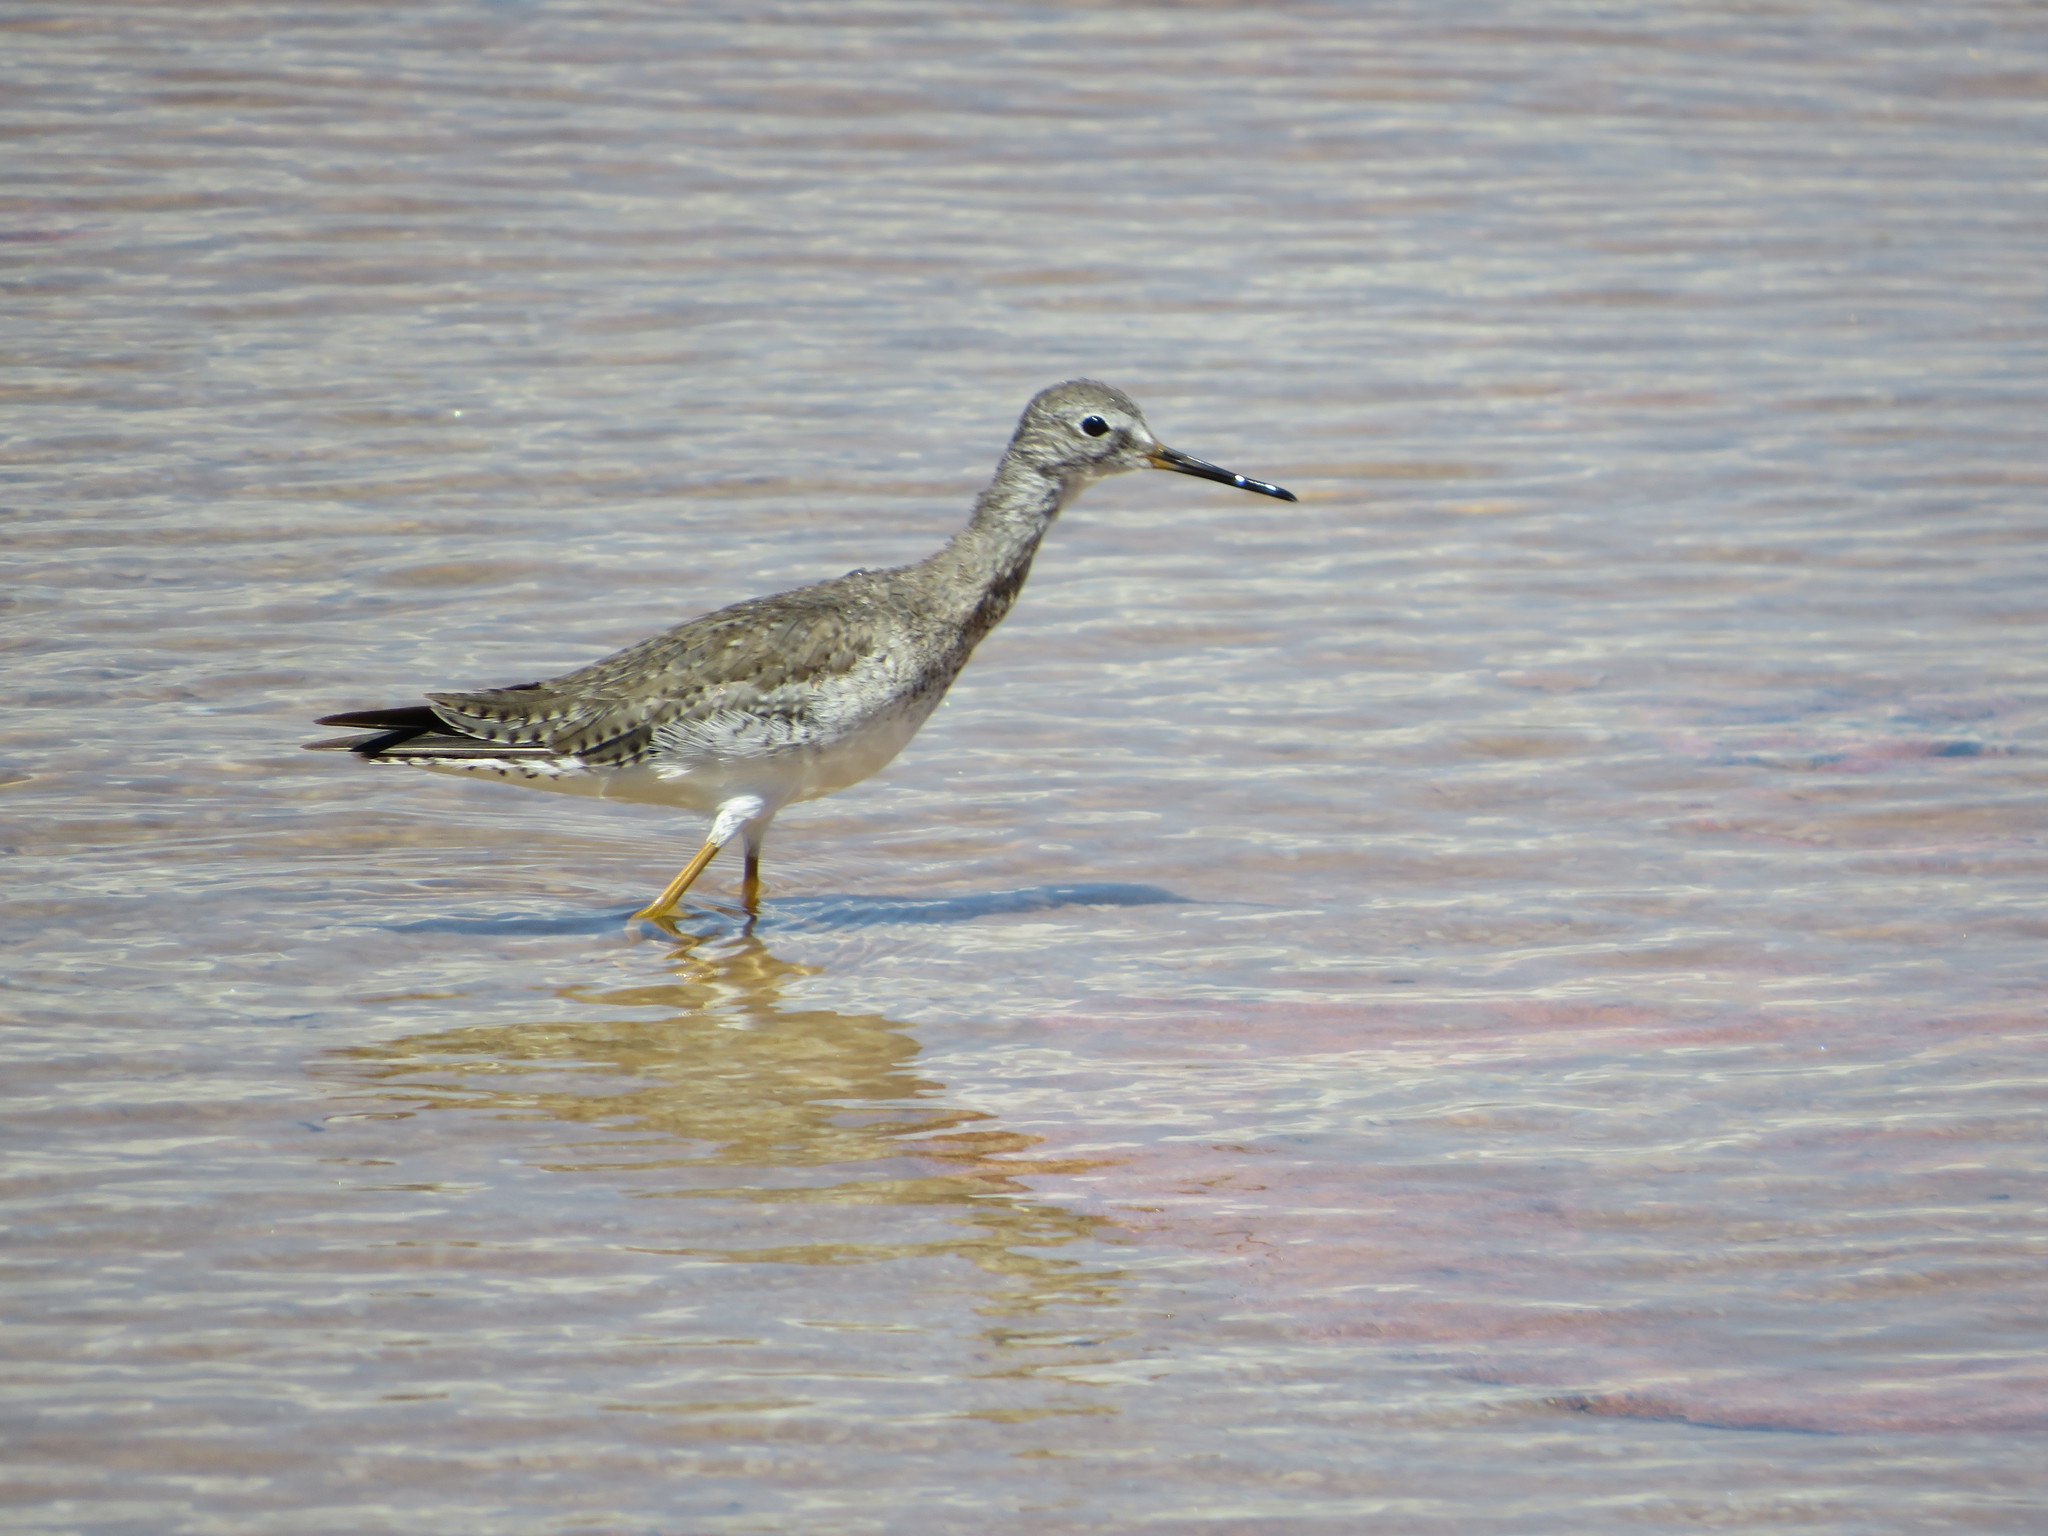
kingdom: Animalia
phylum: Chordata
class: Aves
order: Charadriiformes
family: Scolopacidae
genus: Tringa
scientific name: Tringa flavipes
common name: Lesser yellowlegs
